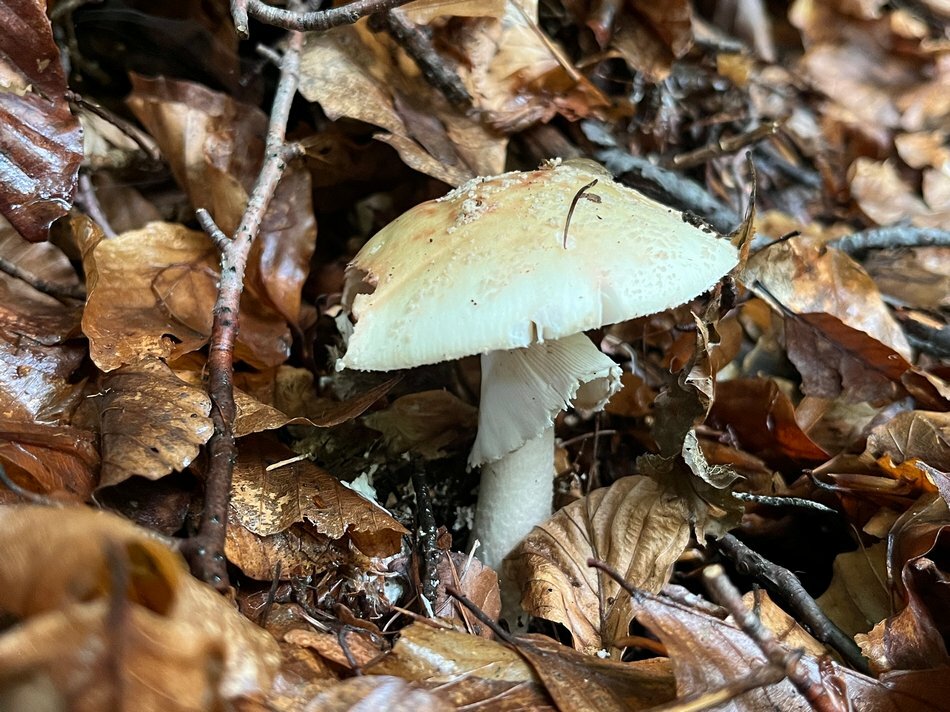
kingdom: Fungi
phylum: Basidiomycota
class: Agaricomycetes
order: Agaricales
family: Amanitaceae
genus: Amanita
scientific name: Amanita rubescens
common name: Blusher
